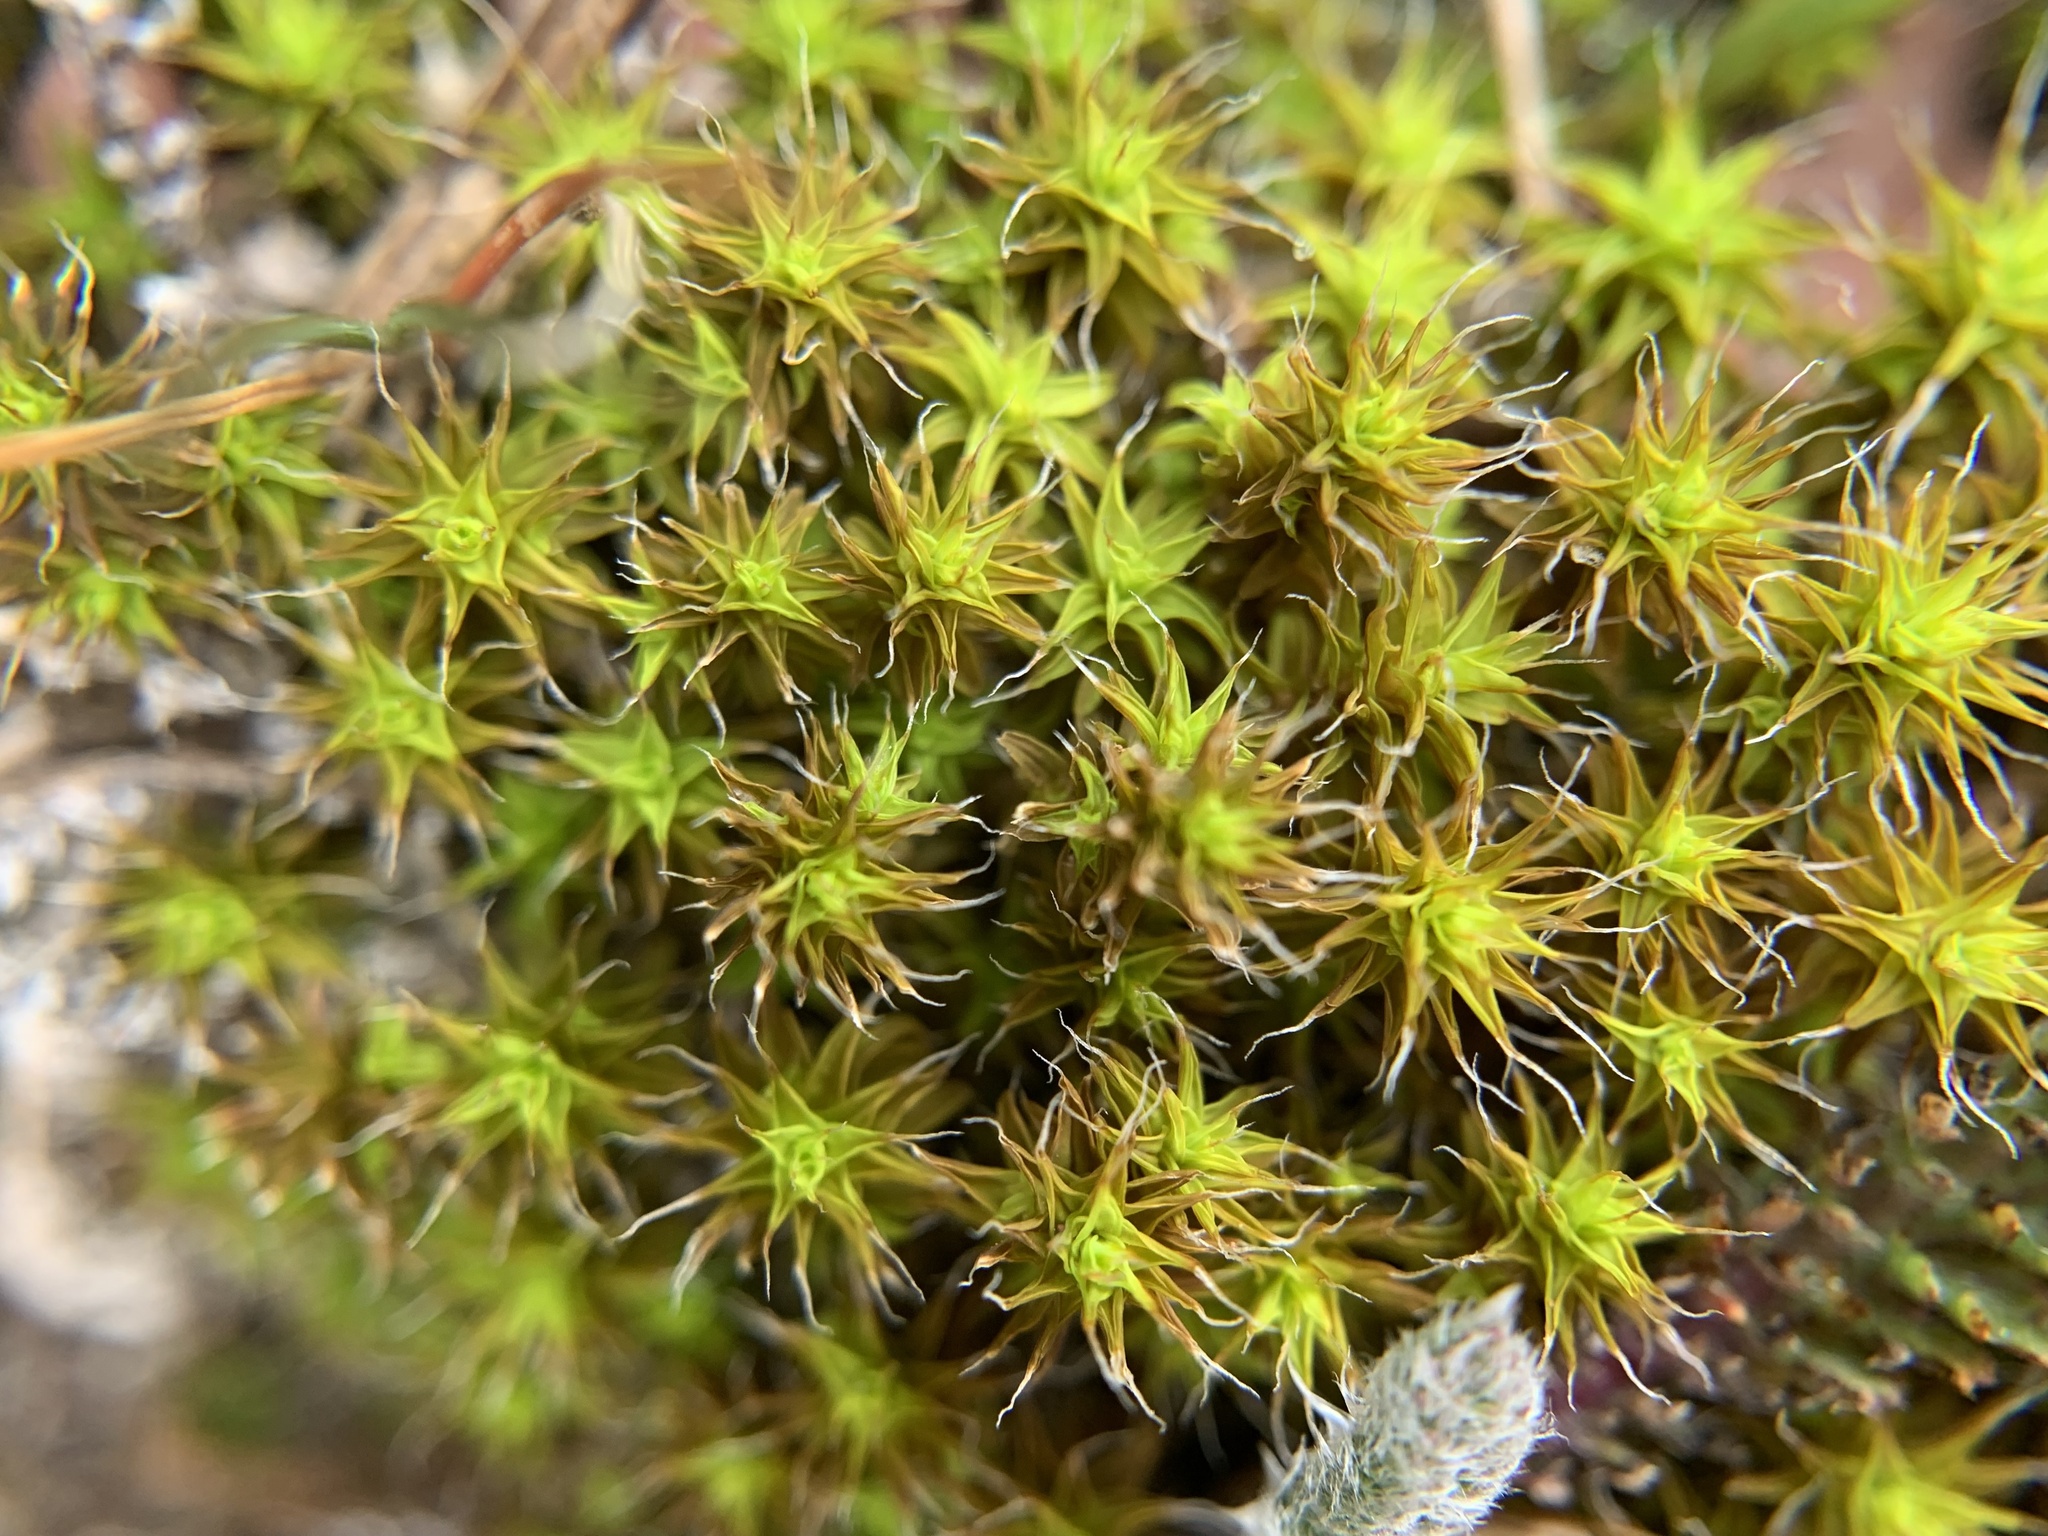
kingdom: Plantae
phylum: Bryophyta
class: Bryopsida
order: Pottiales
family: Pottiaceae
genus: Syntrichia
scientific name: Syntrichia ruralis
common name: Sidewalk screw moss
